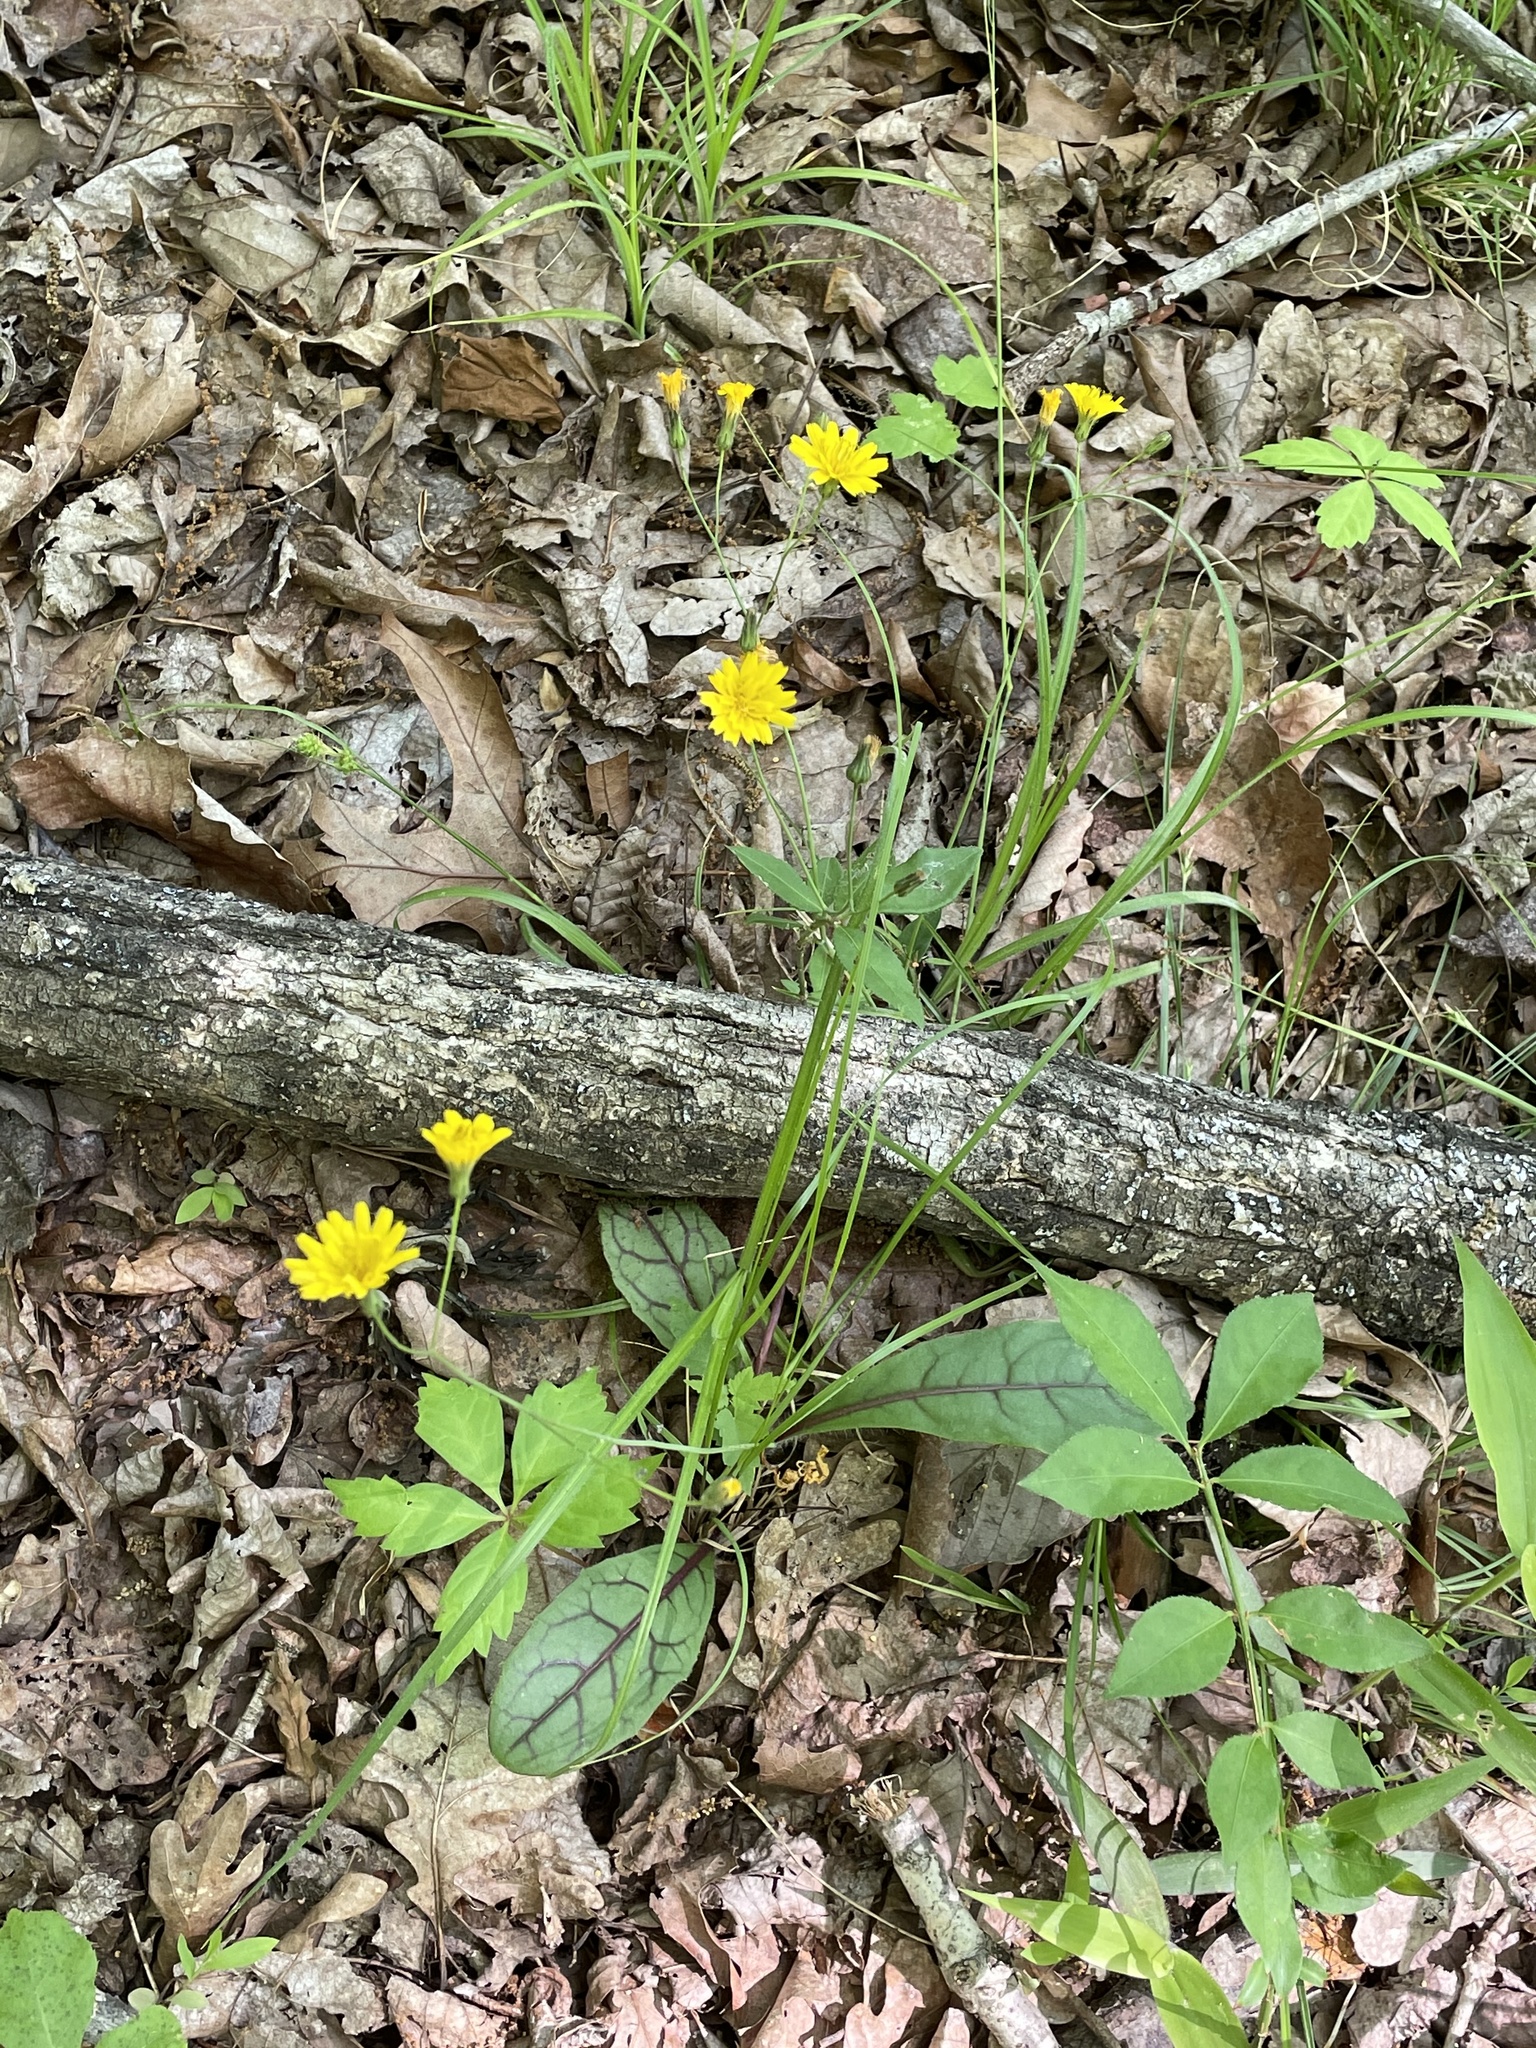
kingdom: Plantae
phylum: Tracheophyta
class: Magnoliopsida
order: Asterales
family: Asteraceae
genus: Hieracium
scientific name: Hieracium venosum
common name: Rattlesnake hawkweed
